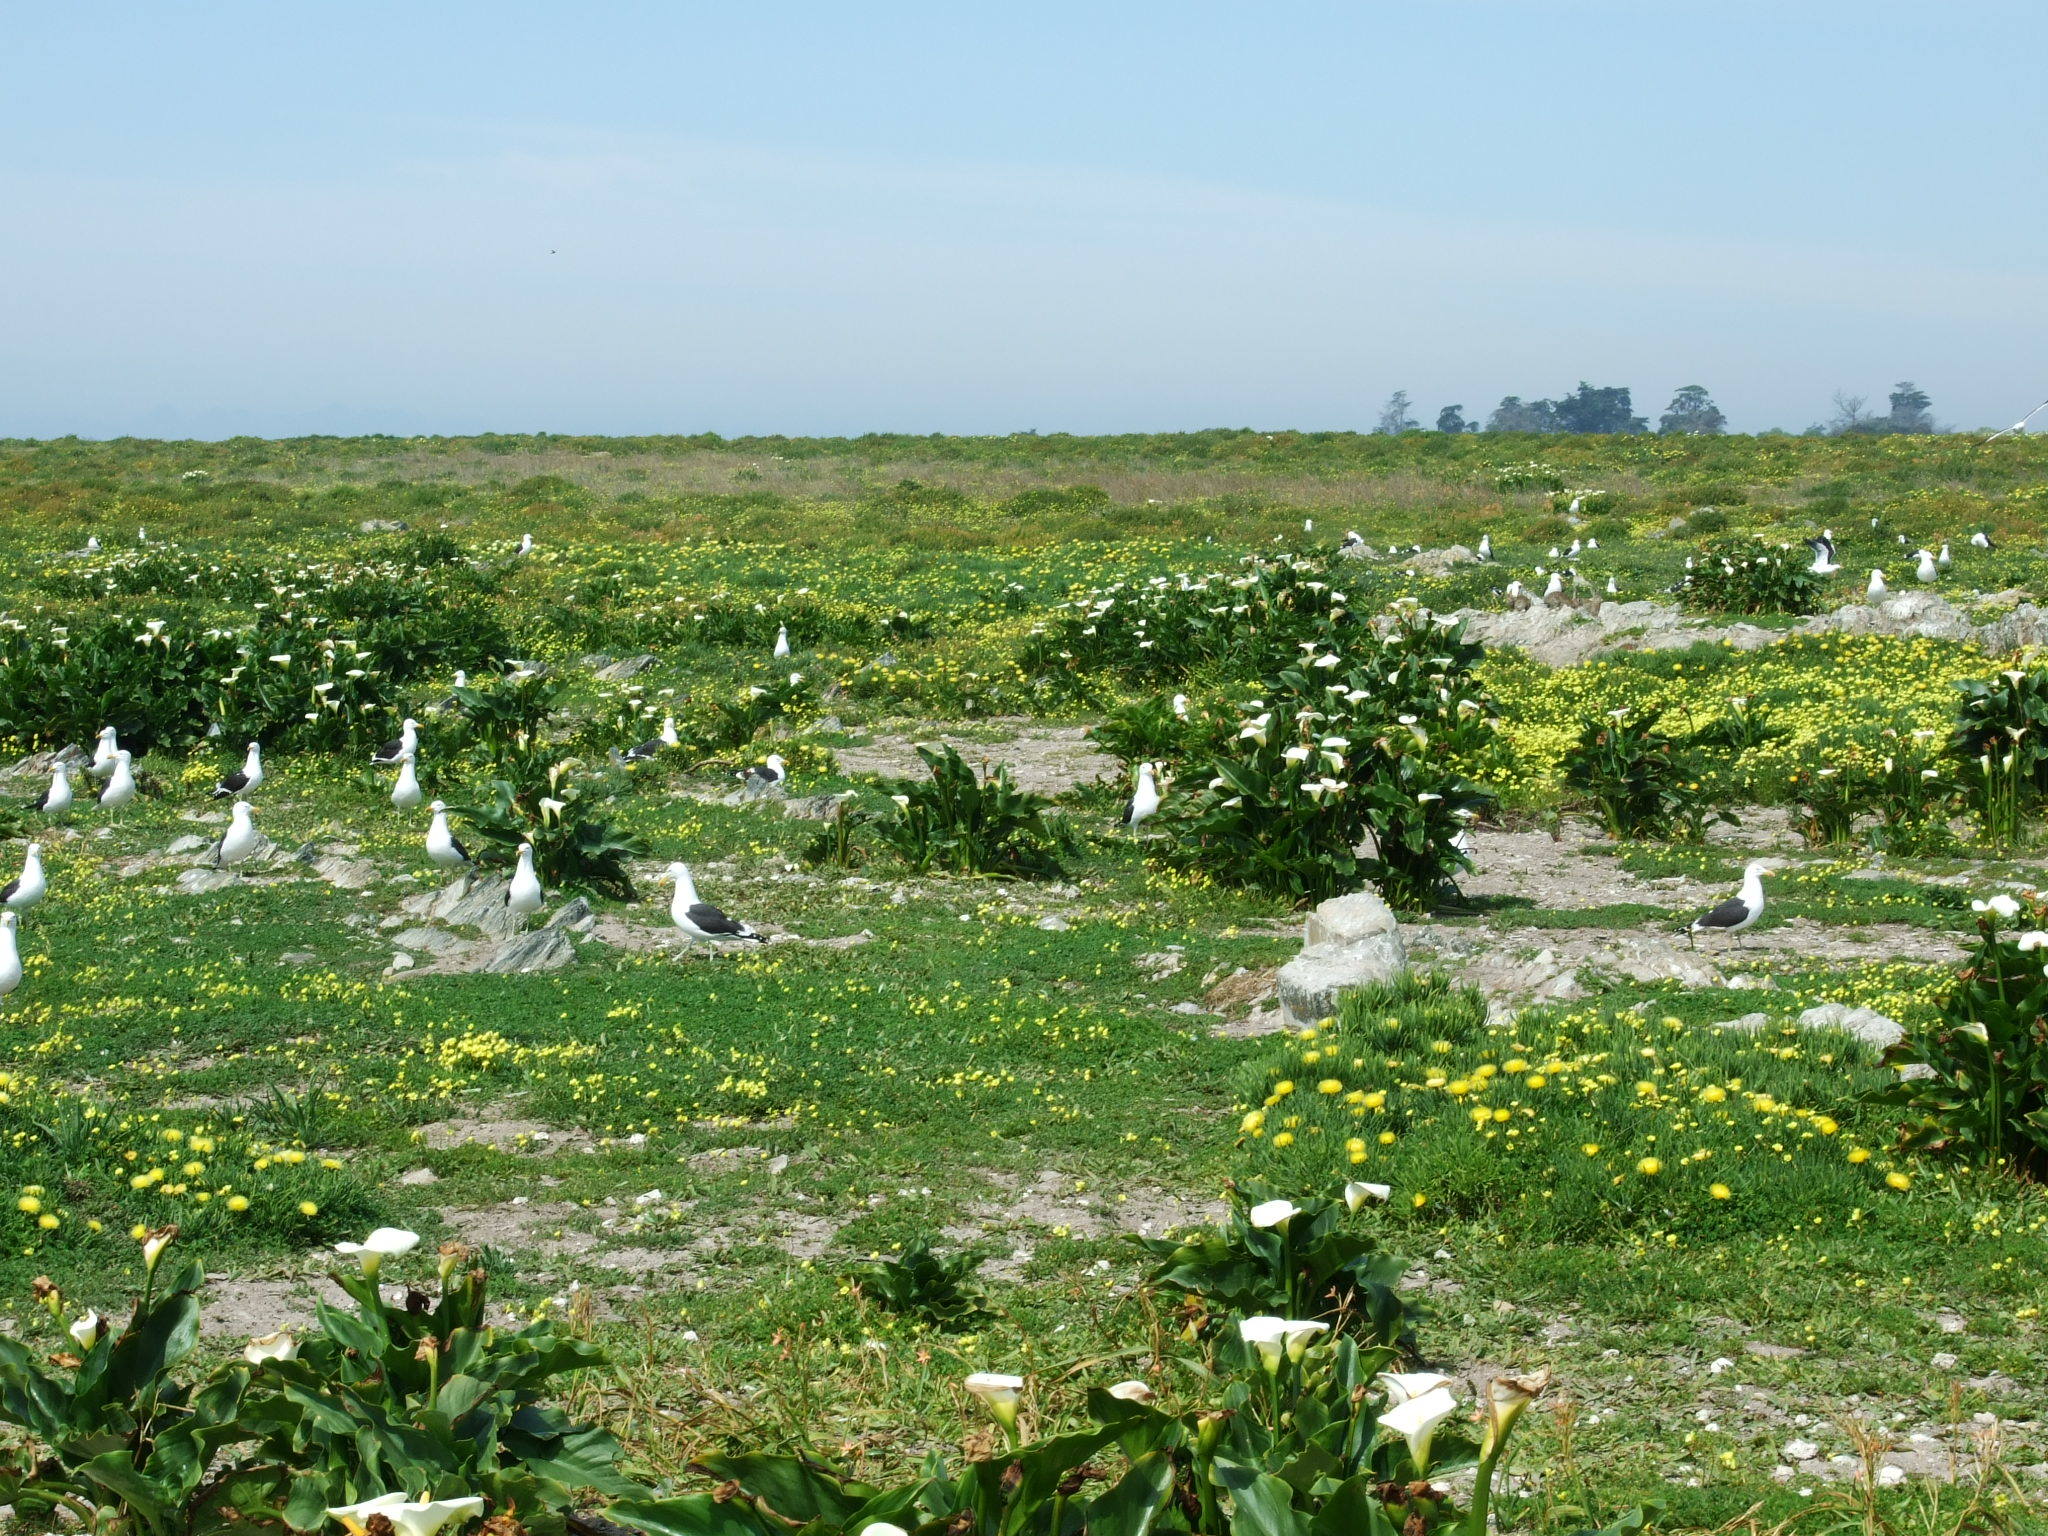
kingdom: Animalia
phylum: Chordata
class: Aves
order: Charadriiformes
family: Laridae
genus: Larus
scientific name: Larus dominicanus
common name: Kelp gull
